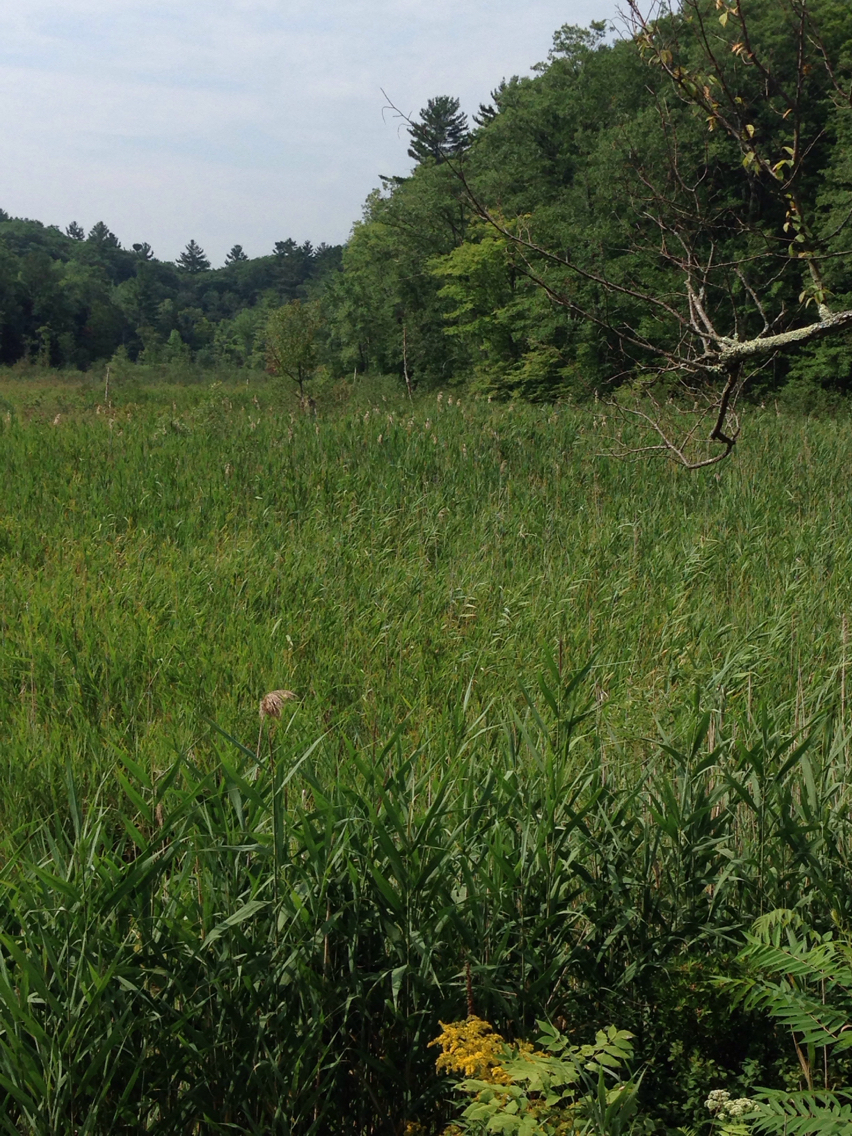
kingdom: Plantae
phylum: Tracheophyta
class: Liliopsida
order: Poales
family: Poaceae
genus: Phragmites
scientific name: Phragmites australis
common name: Common reed
